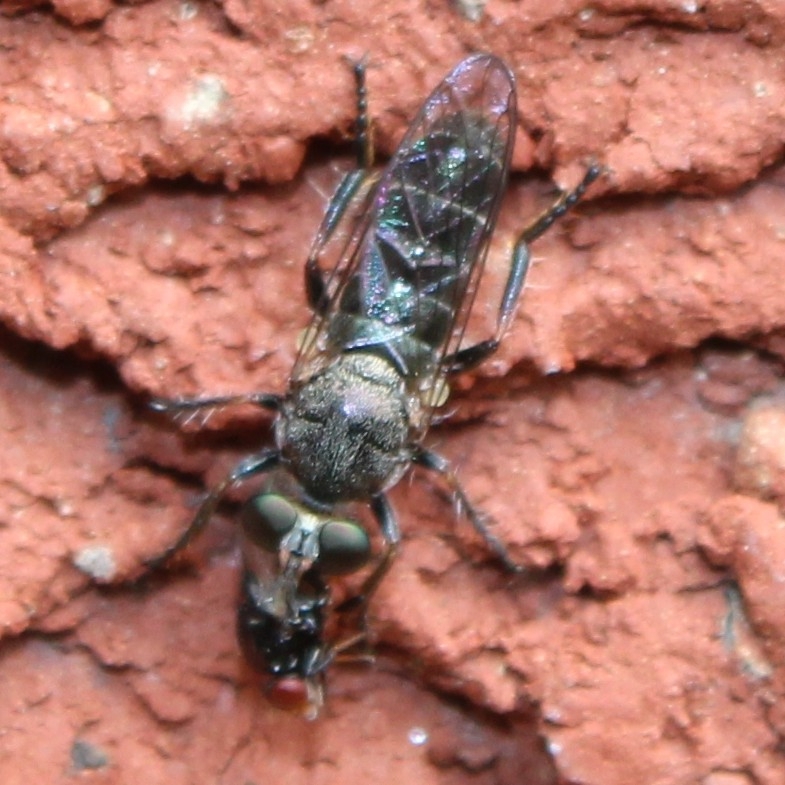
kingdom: Animalia
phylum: Arthropoda
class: Insecta
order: Diptera
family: Asilidae
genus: Atomosia
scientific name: Atomosia puella
